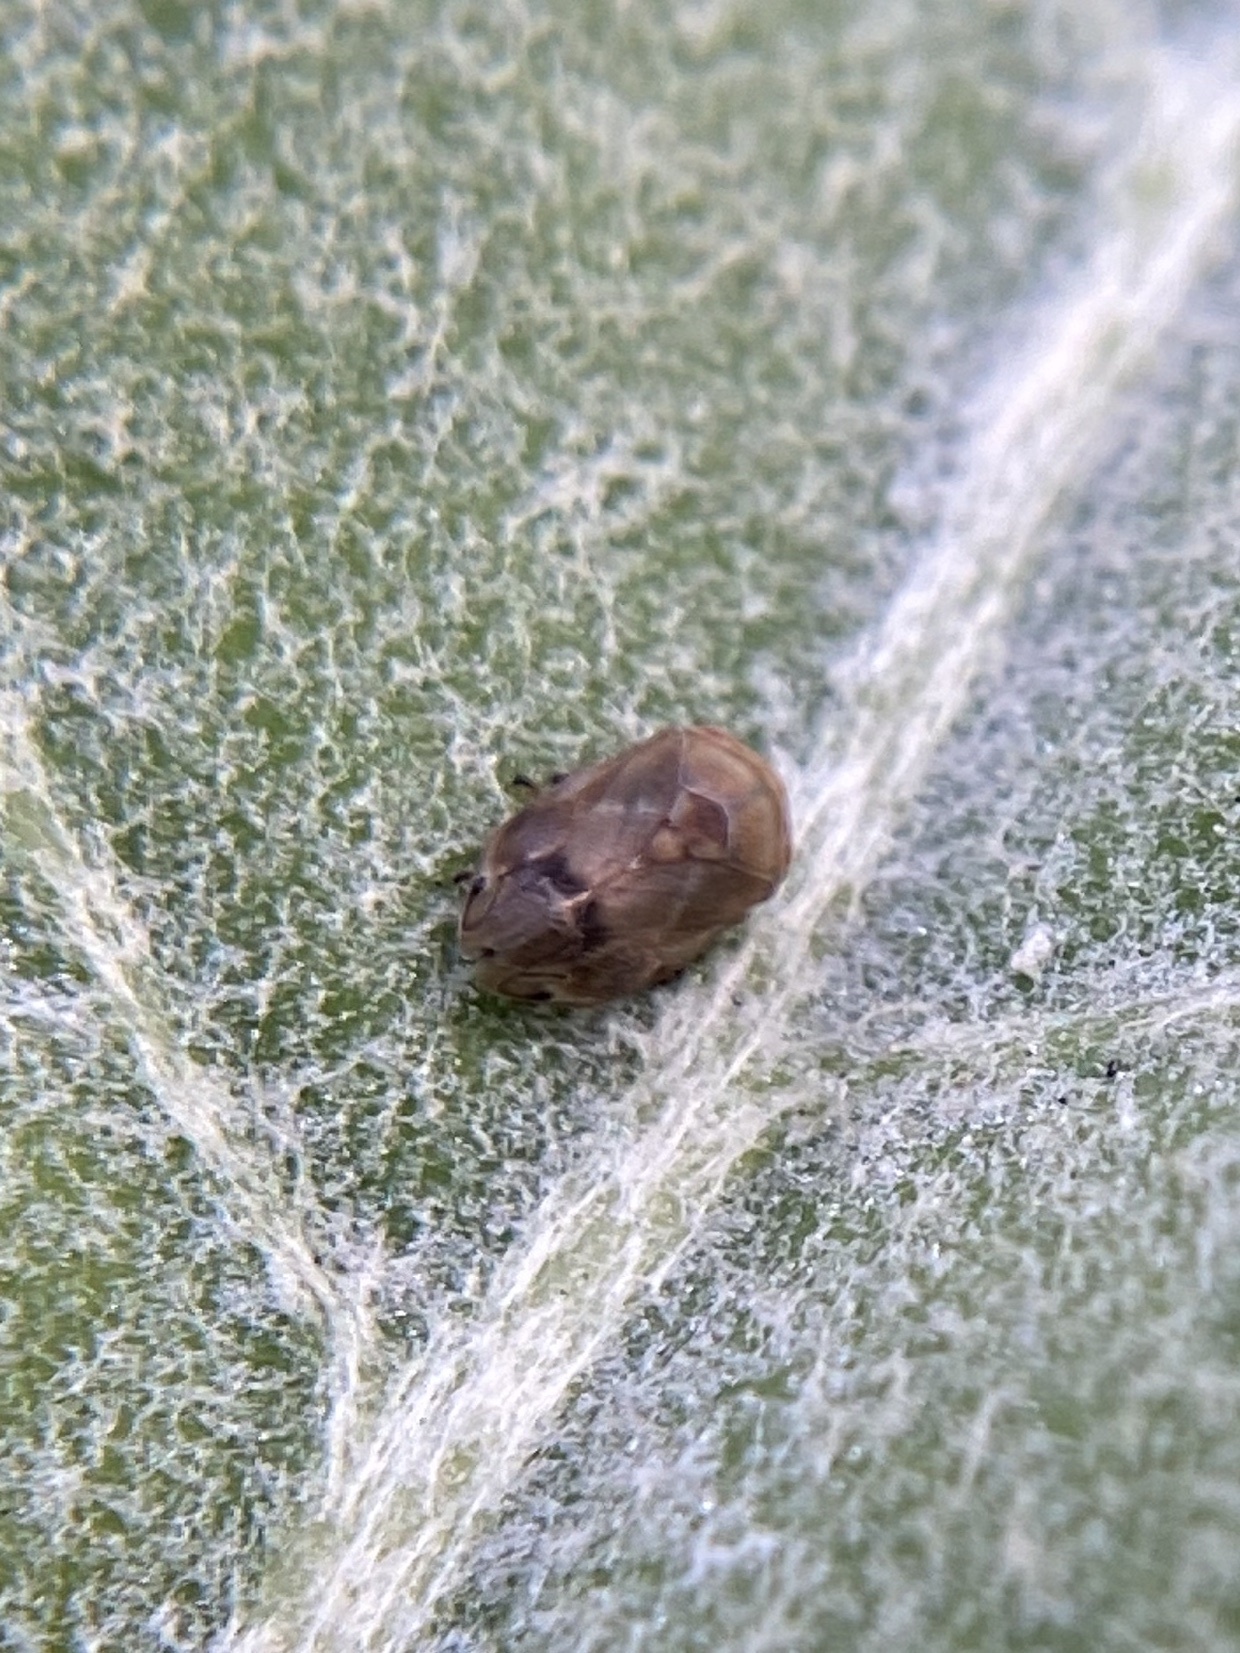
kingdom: Animalia
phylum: Arthropoda
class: Insecta
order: Hemiptera
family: Clastopteridae
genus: Clastoptera
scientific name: Clastoptera querci
